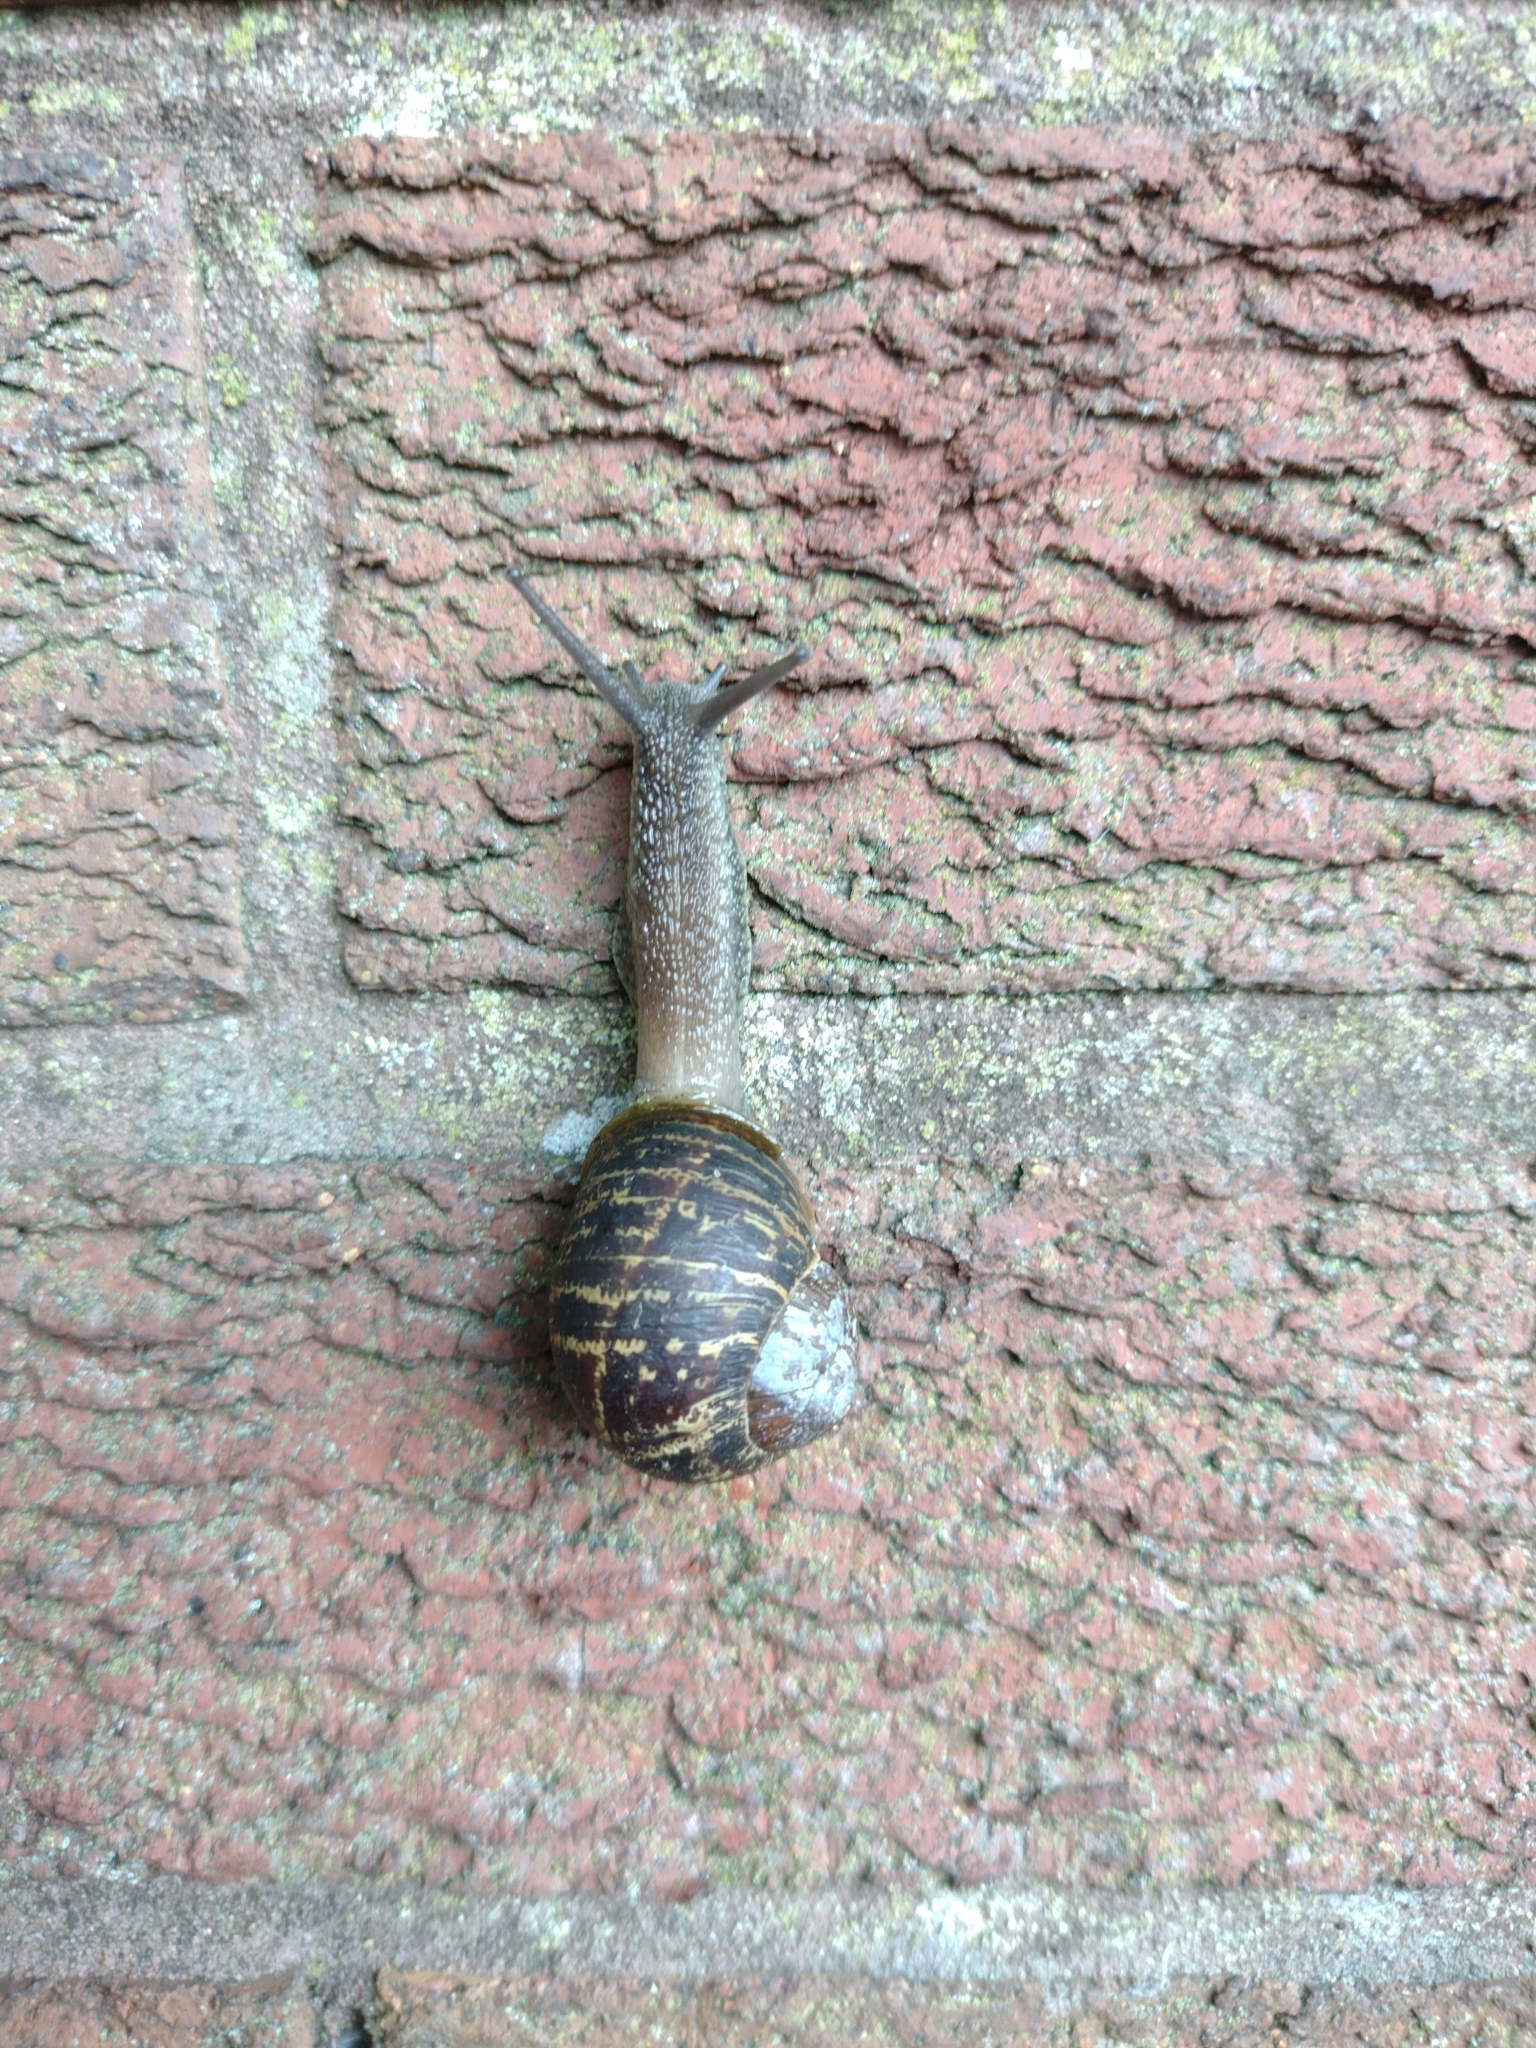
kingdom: Animalia
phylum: Mollusca
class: Gastropoda
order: Stylommatophora
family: Helicidae
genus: Cornu
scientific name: Cornu aspersum
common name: Brown garden snail
